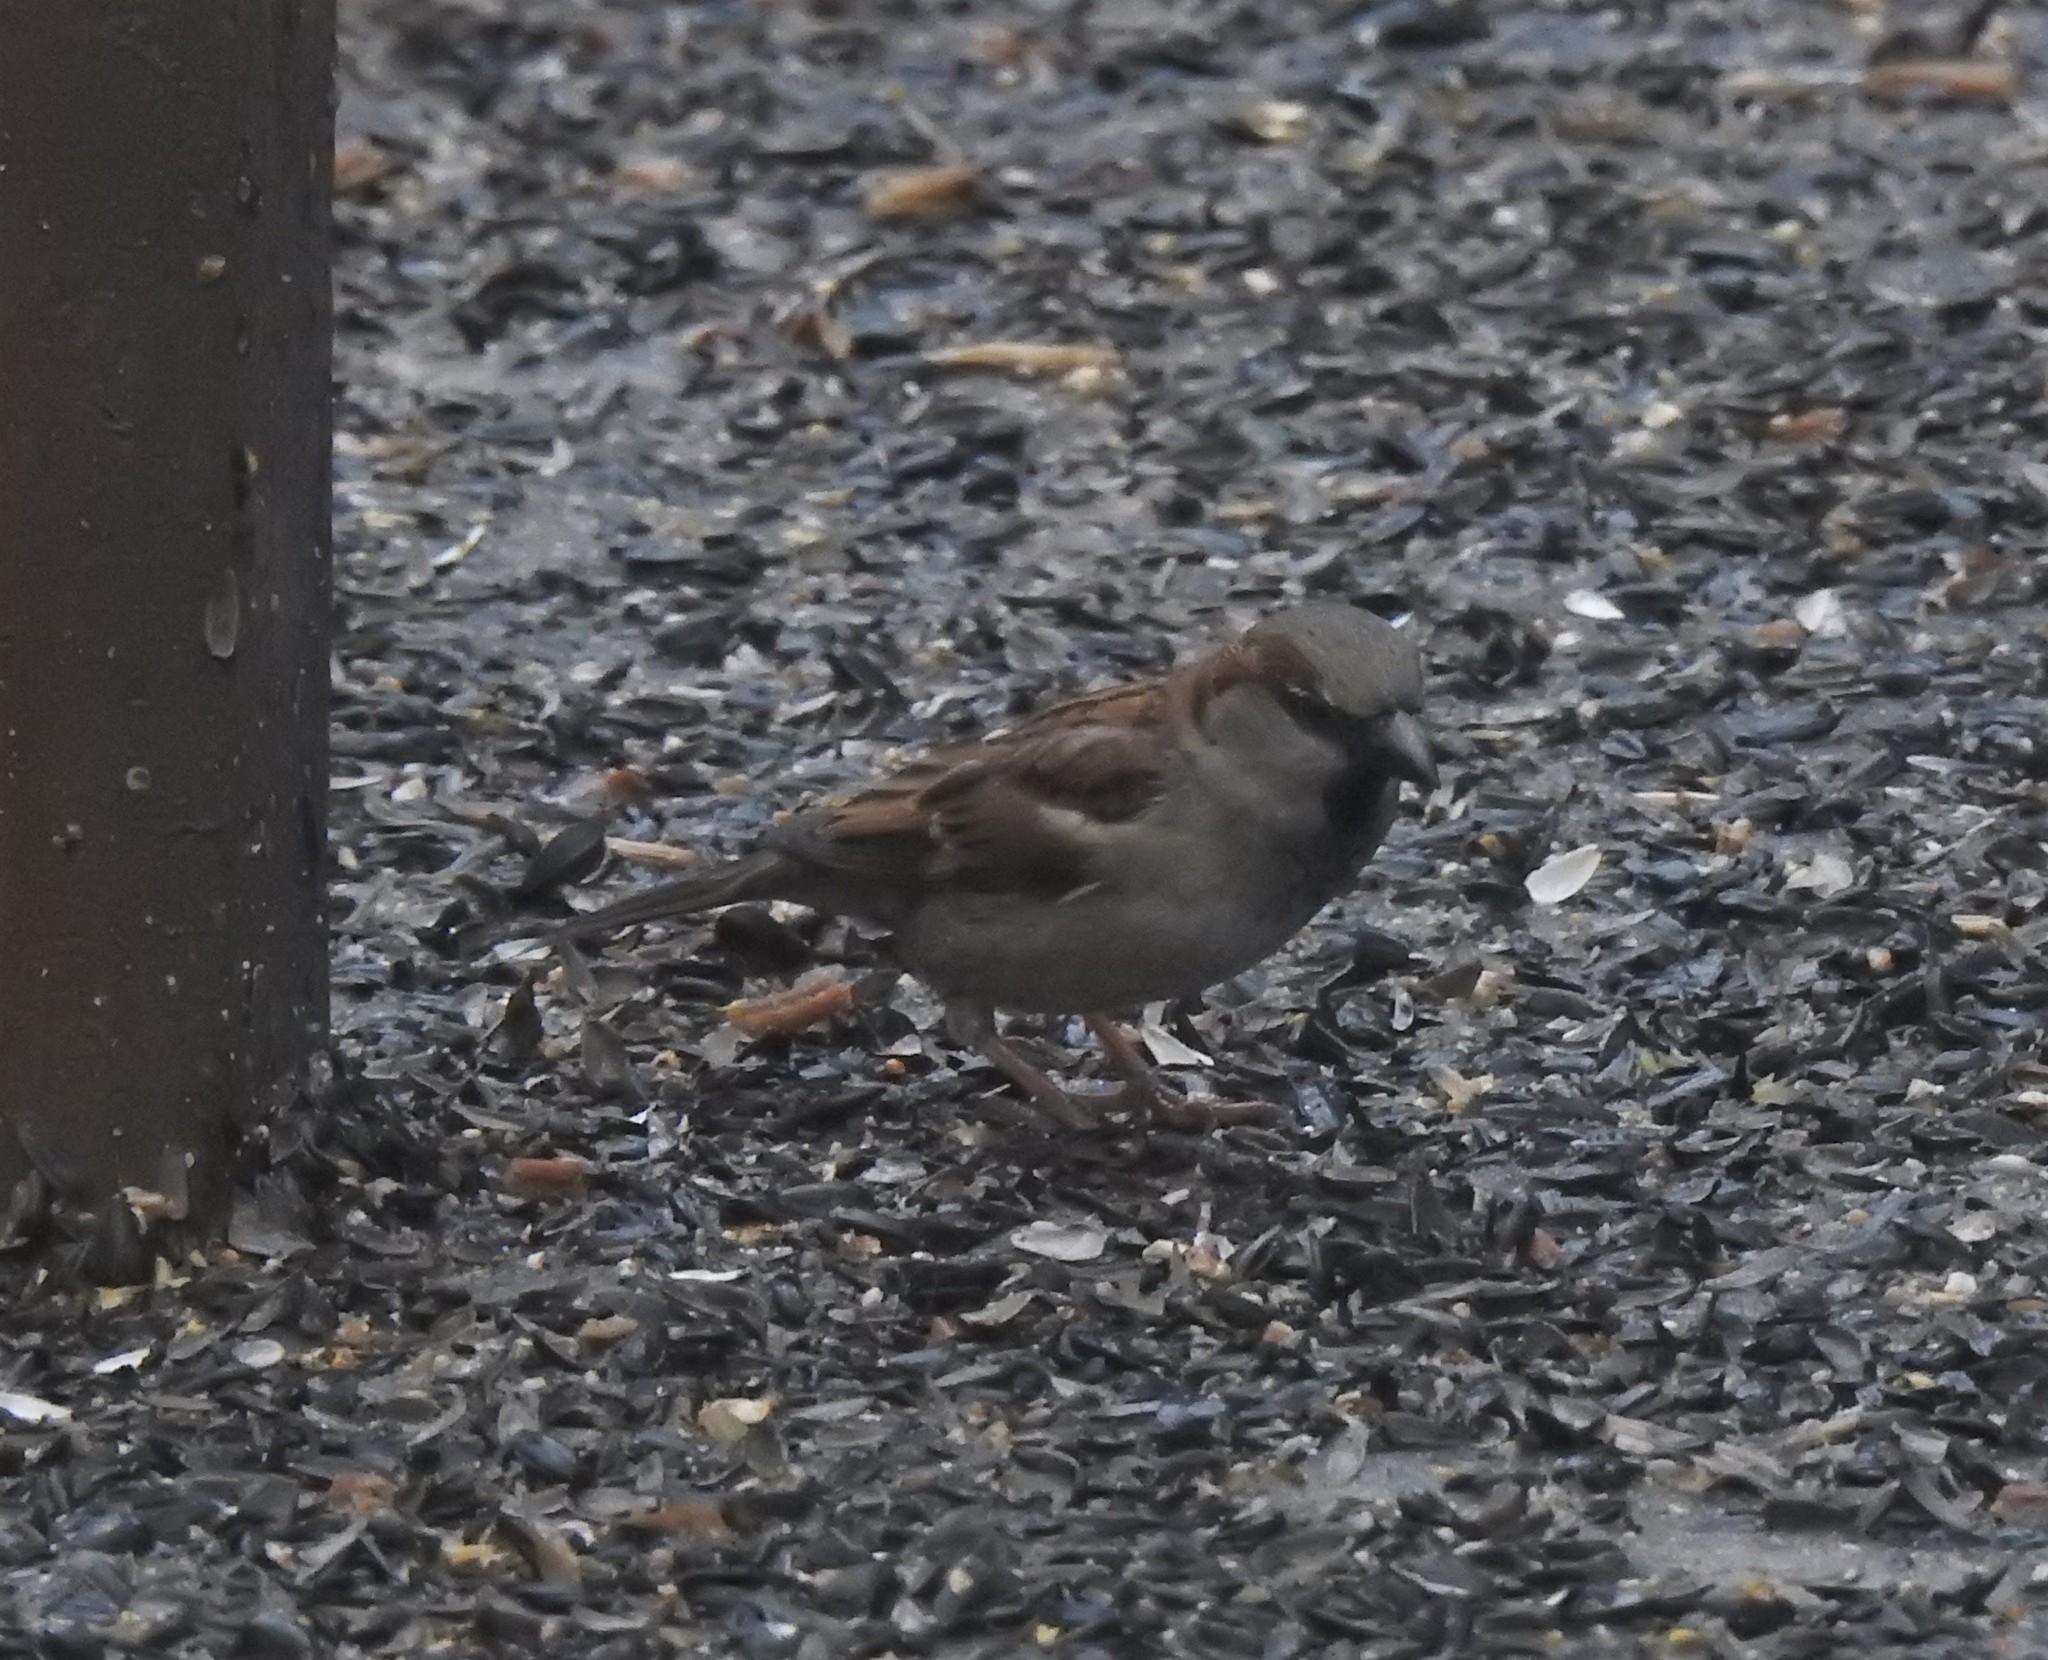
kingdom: Animalia
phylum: Chordata
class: Aves
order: Passeriformes
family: Passeridae
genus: Passer
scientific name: Passer domesticus
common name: House sparrow
